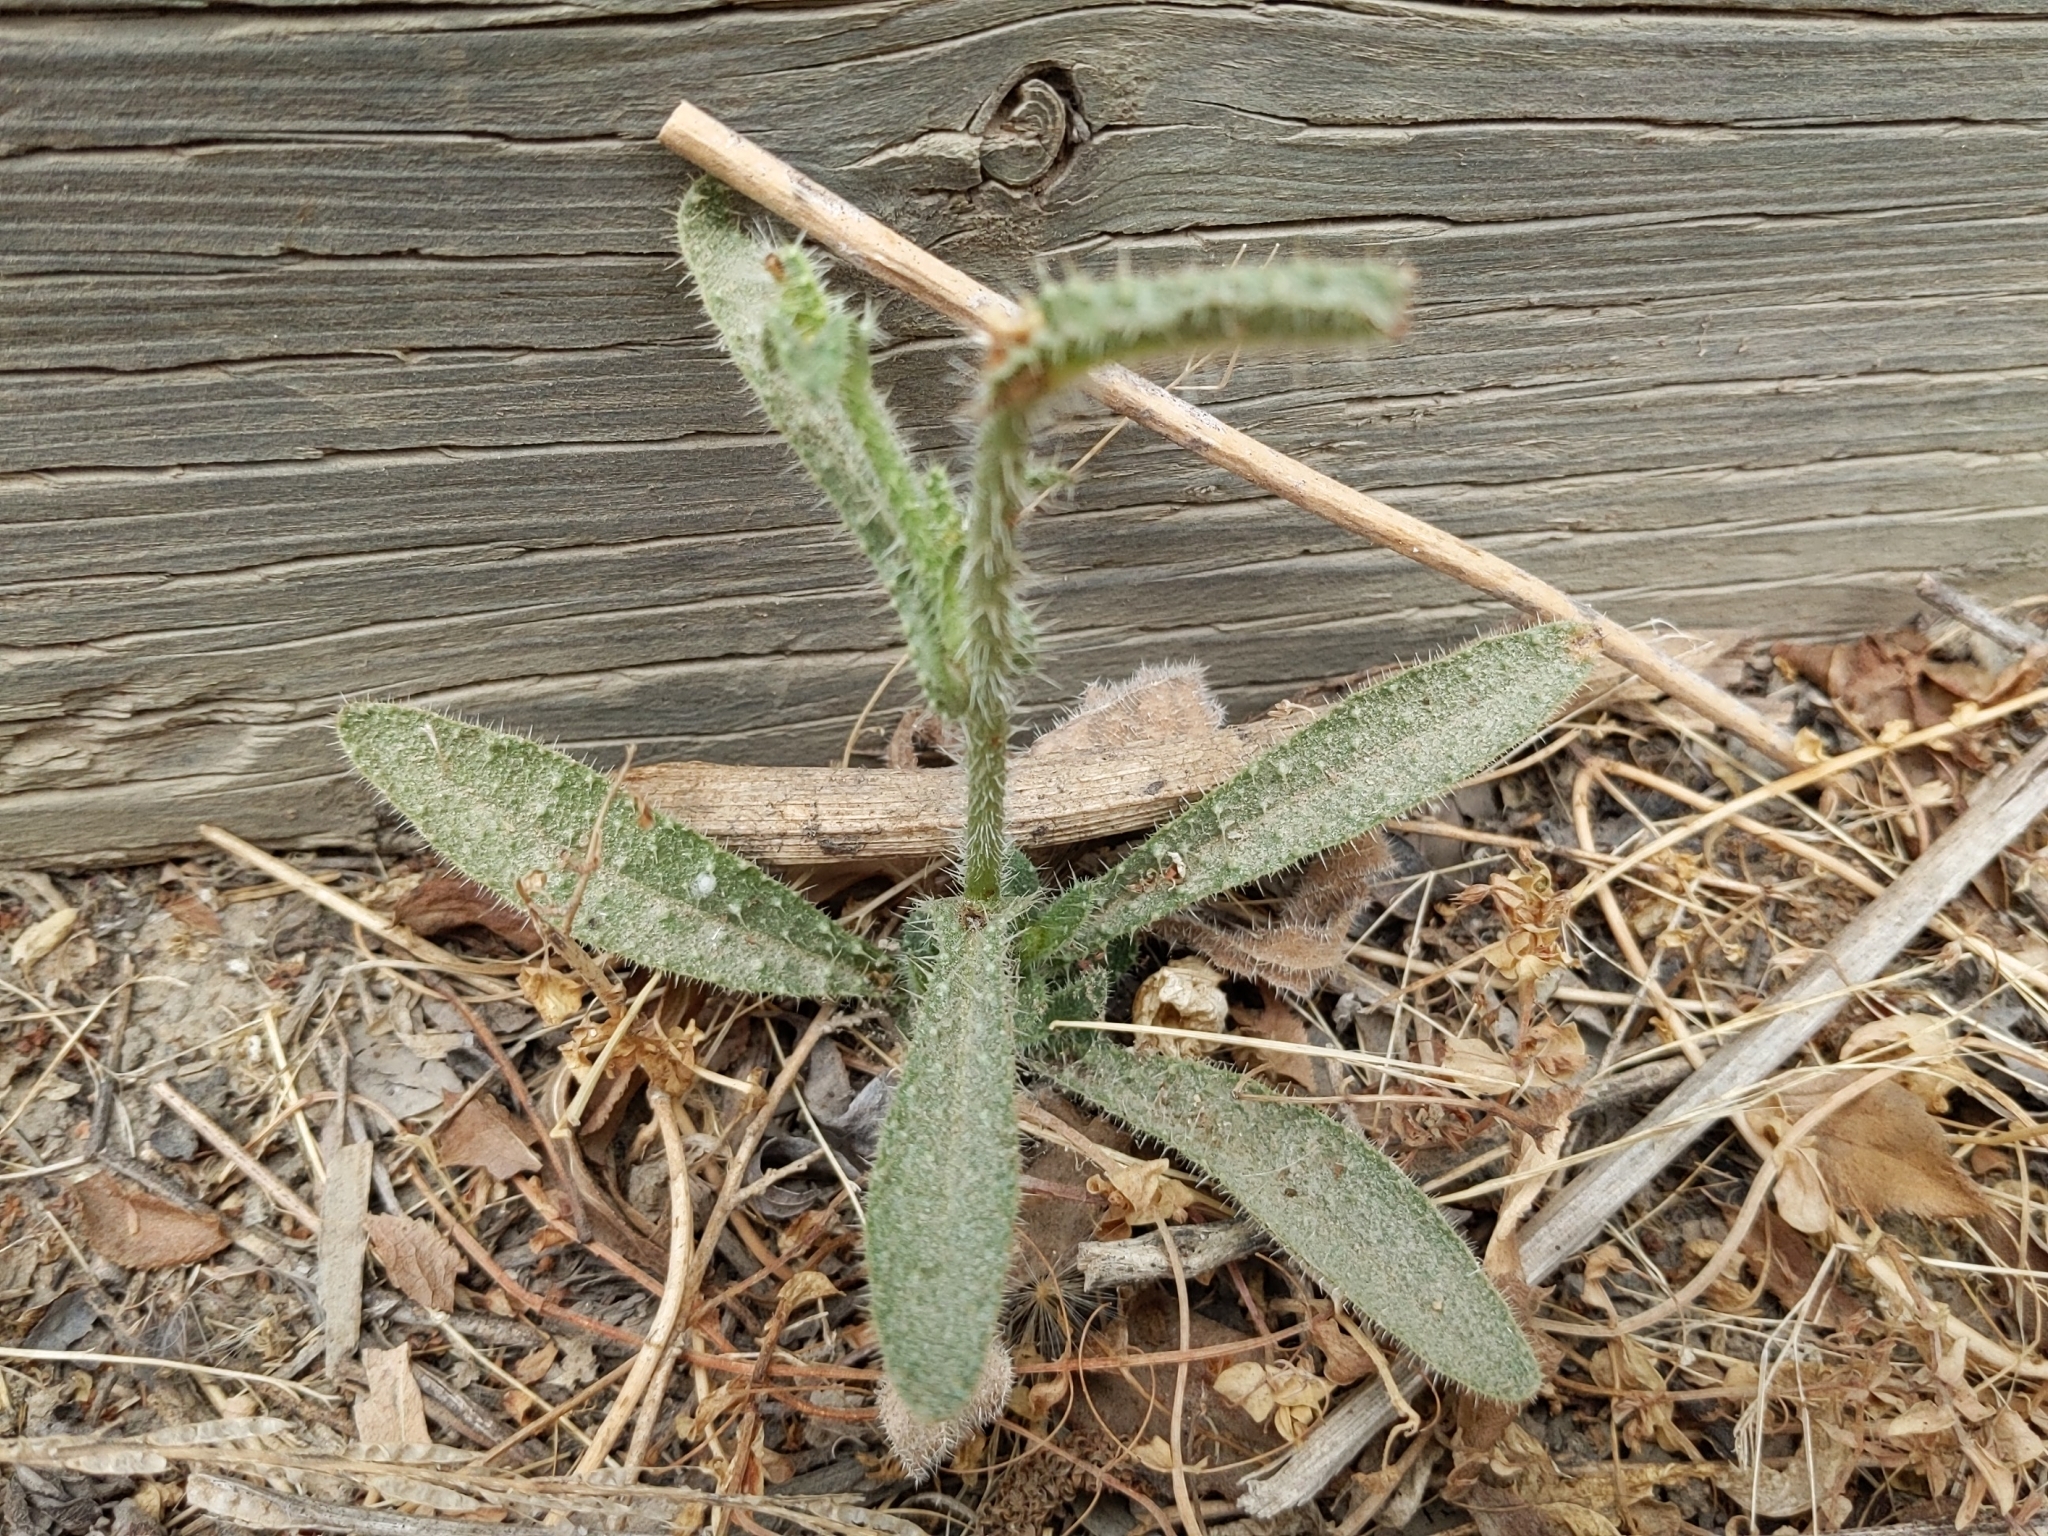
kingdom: Plantae
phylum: Tracheophyta
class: Magnoliopsida
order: Asterales
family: Asteraceae
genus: Helminthotheca
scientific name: Helminthotheca echioides
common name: Ox-tongue
